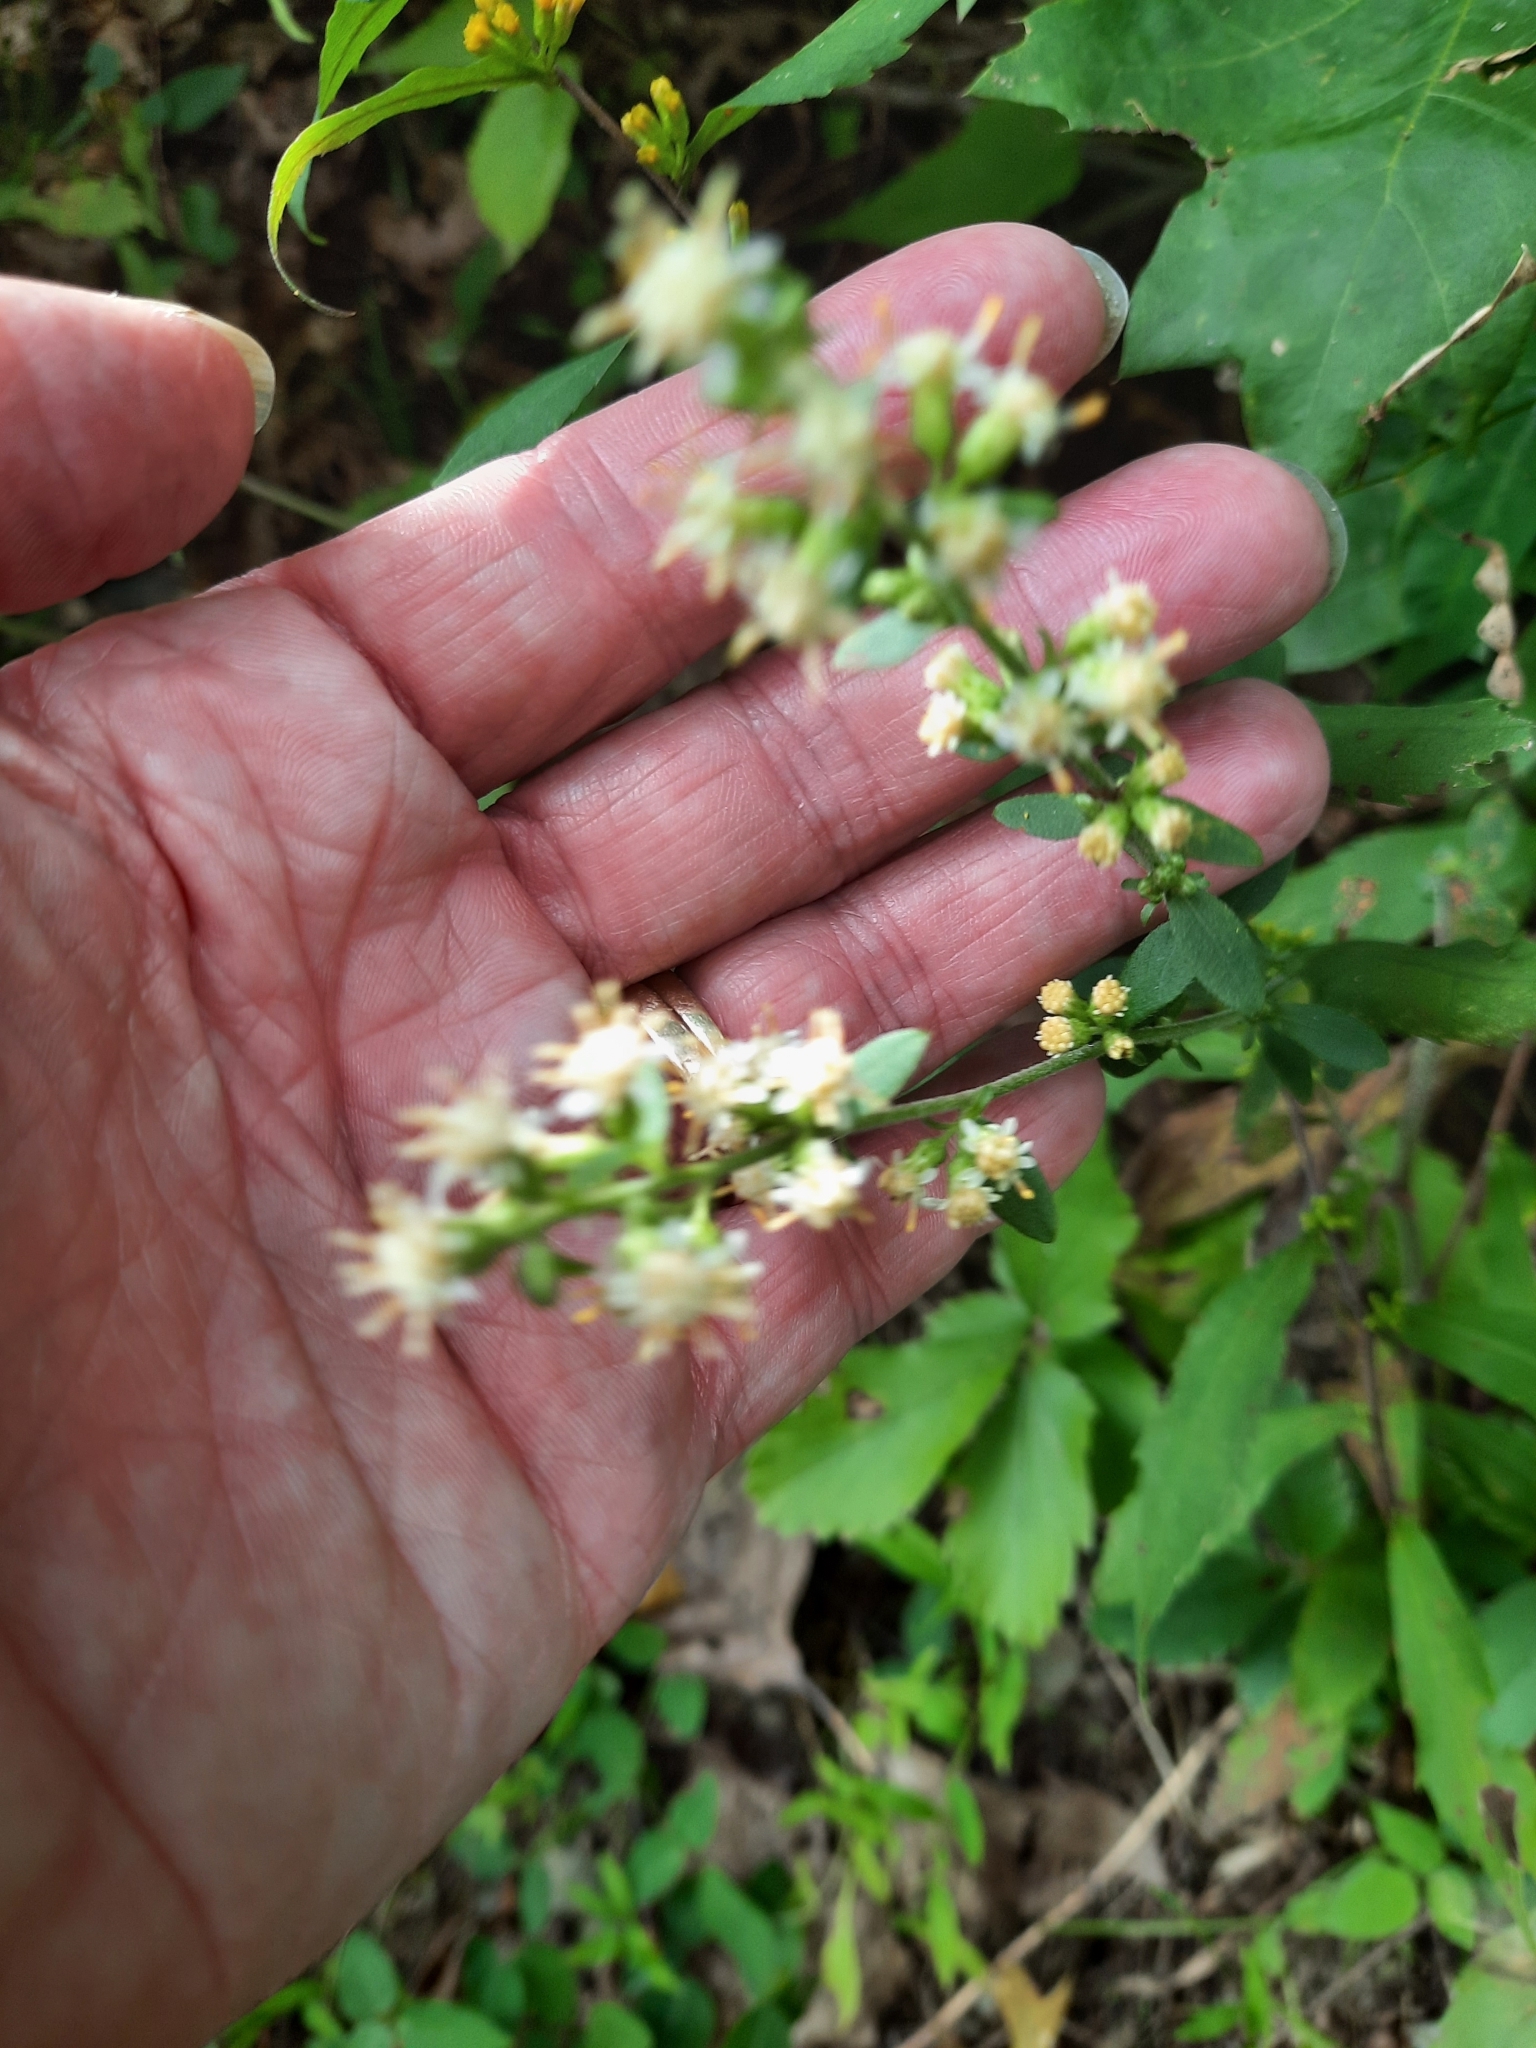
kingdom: Plantae
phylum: Tracheophyta
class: Magnoliopsida
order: Asterales
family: Asteraceae
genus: Solidago
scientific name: Solidago bicolor
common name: Silverrod
